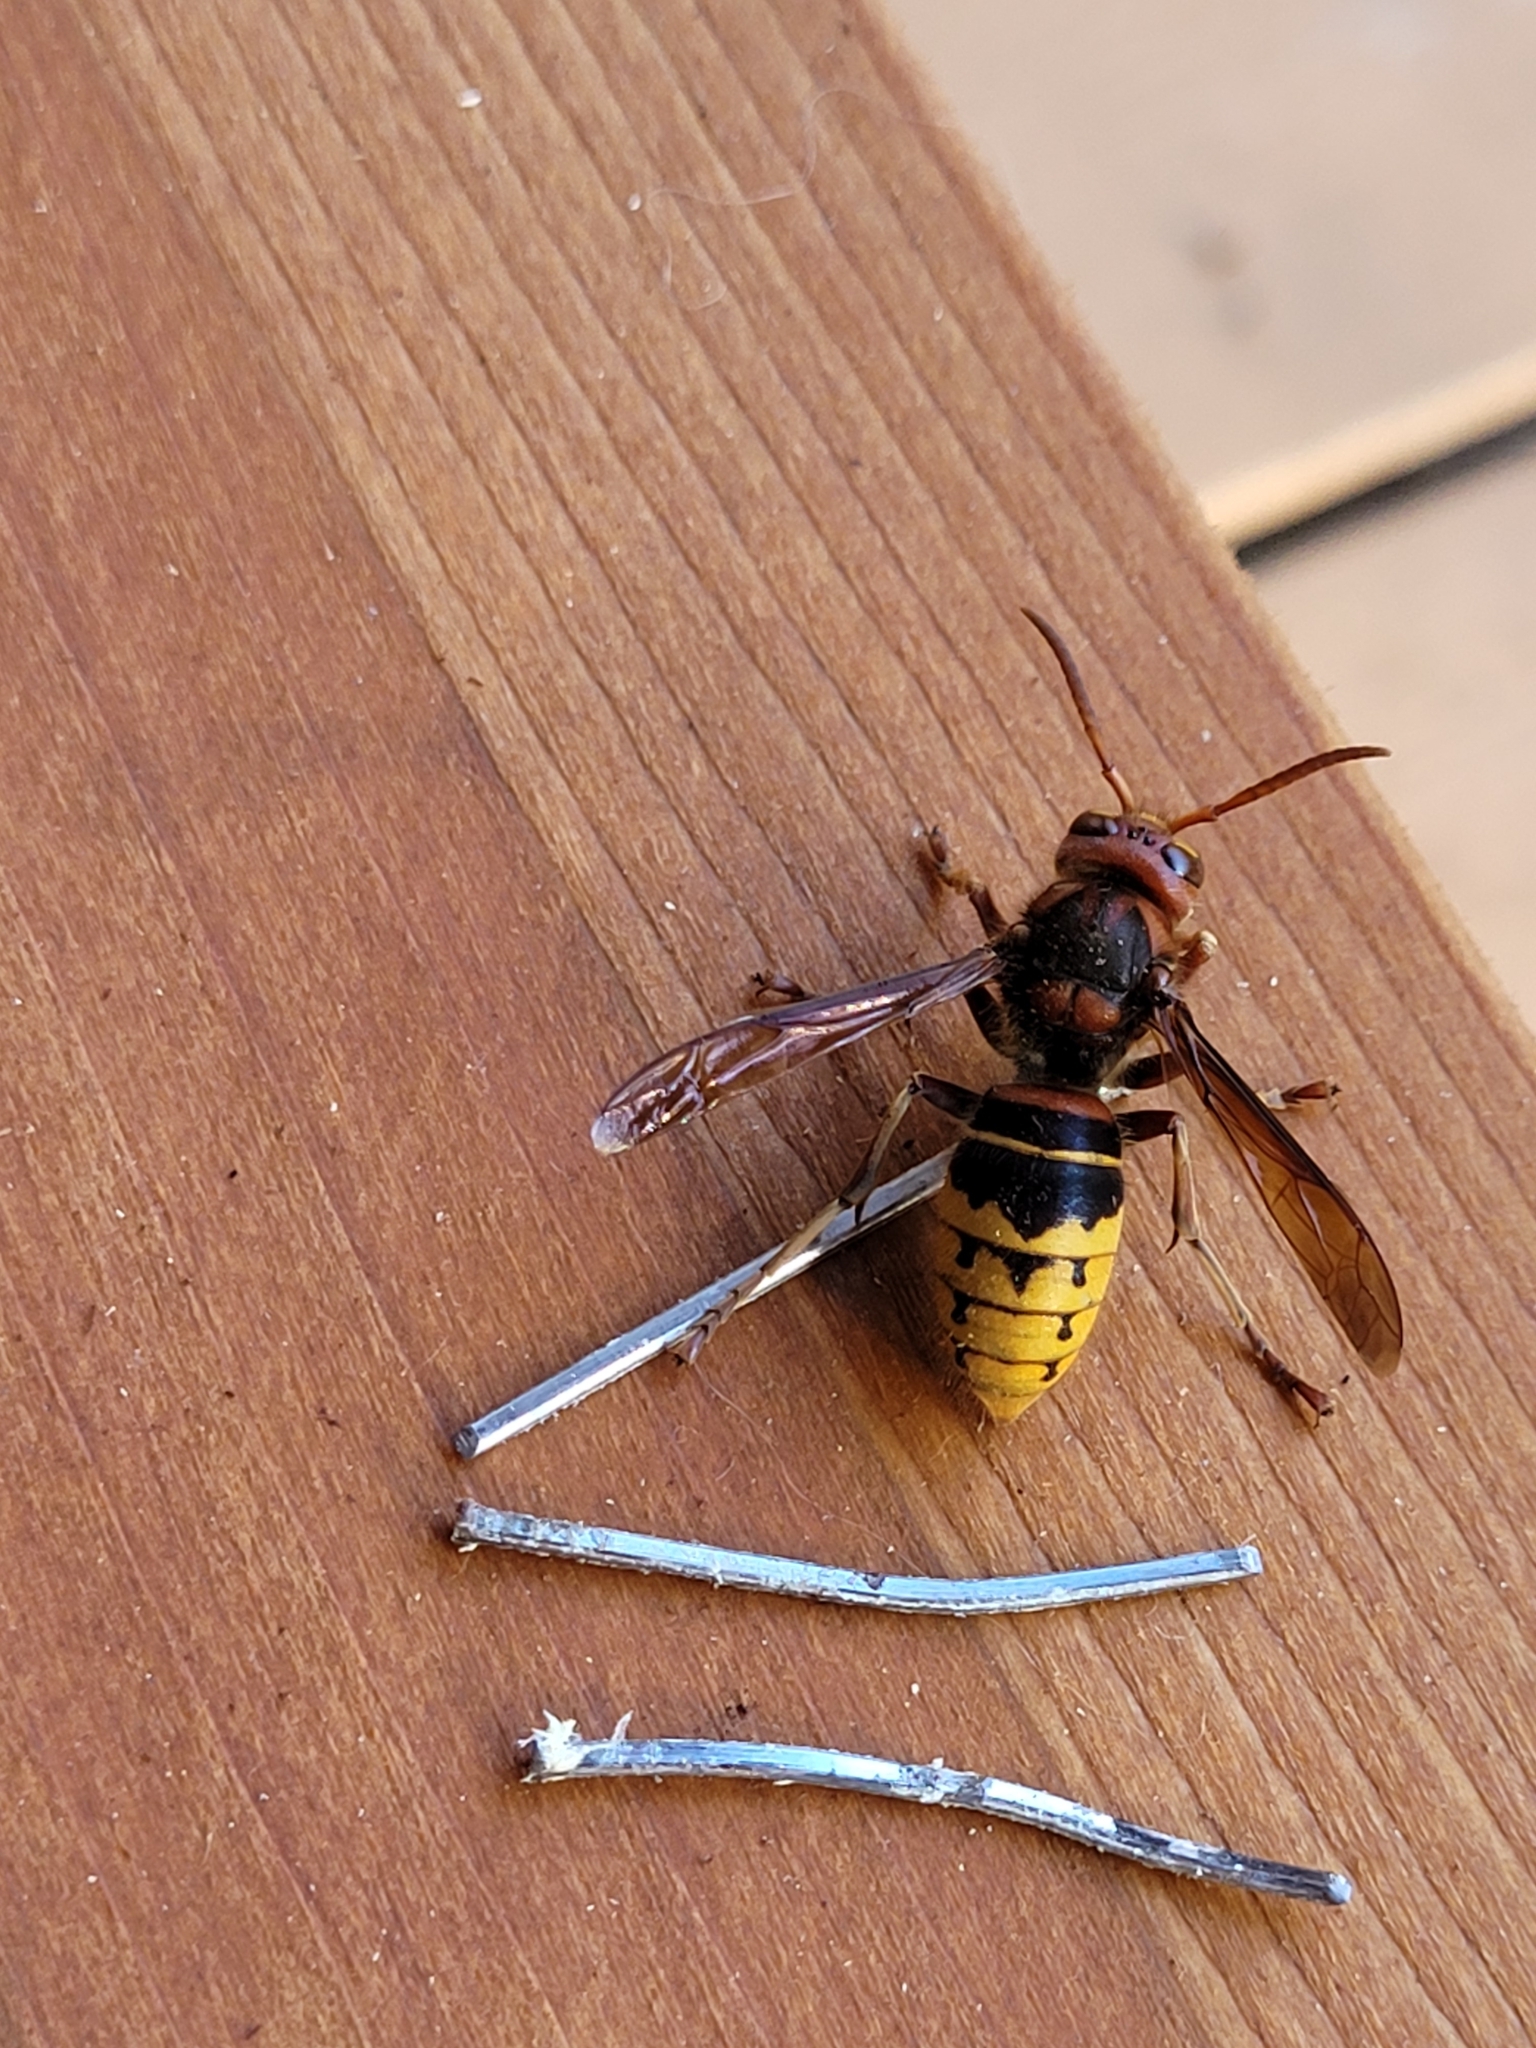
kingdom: Animalia
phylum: Arthropoda
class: Insecta
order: Hymenoptera
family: Vespidae
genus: Vespa
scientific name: Vespa crabro
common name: Hornet
